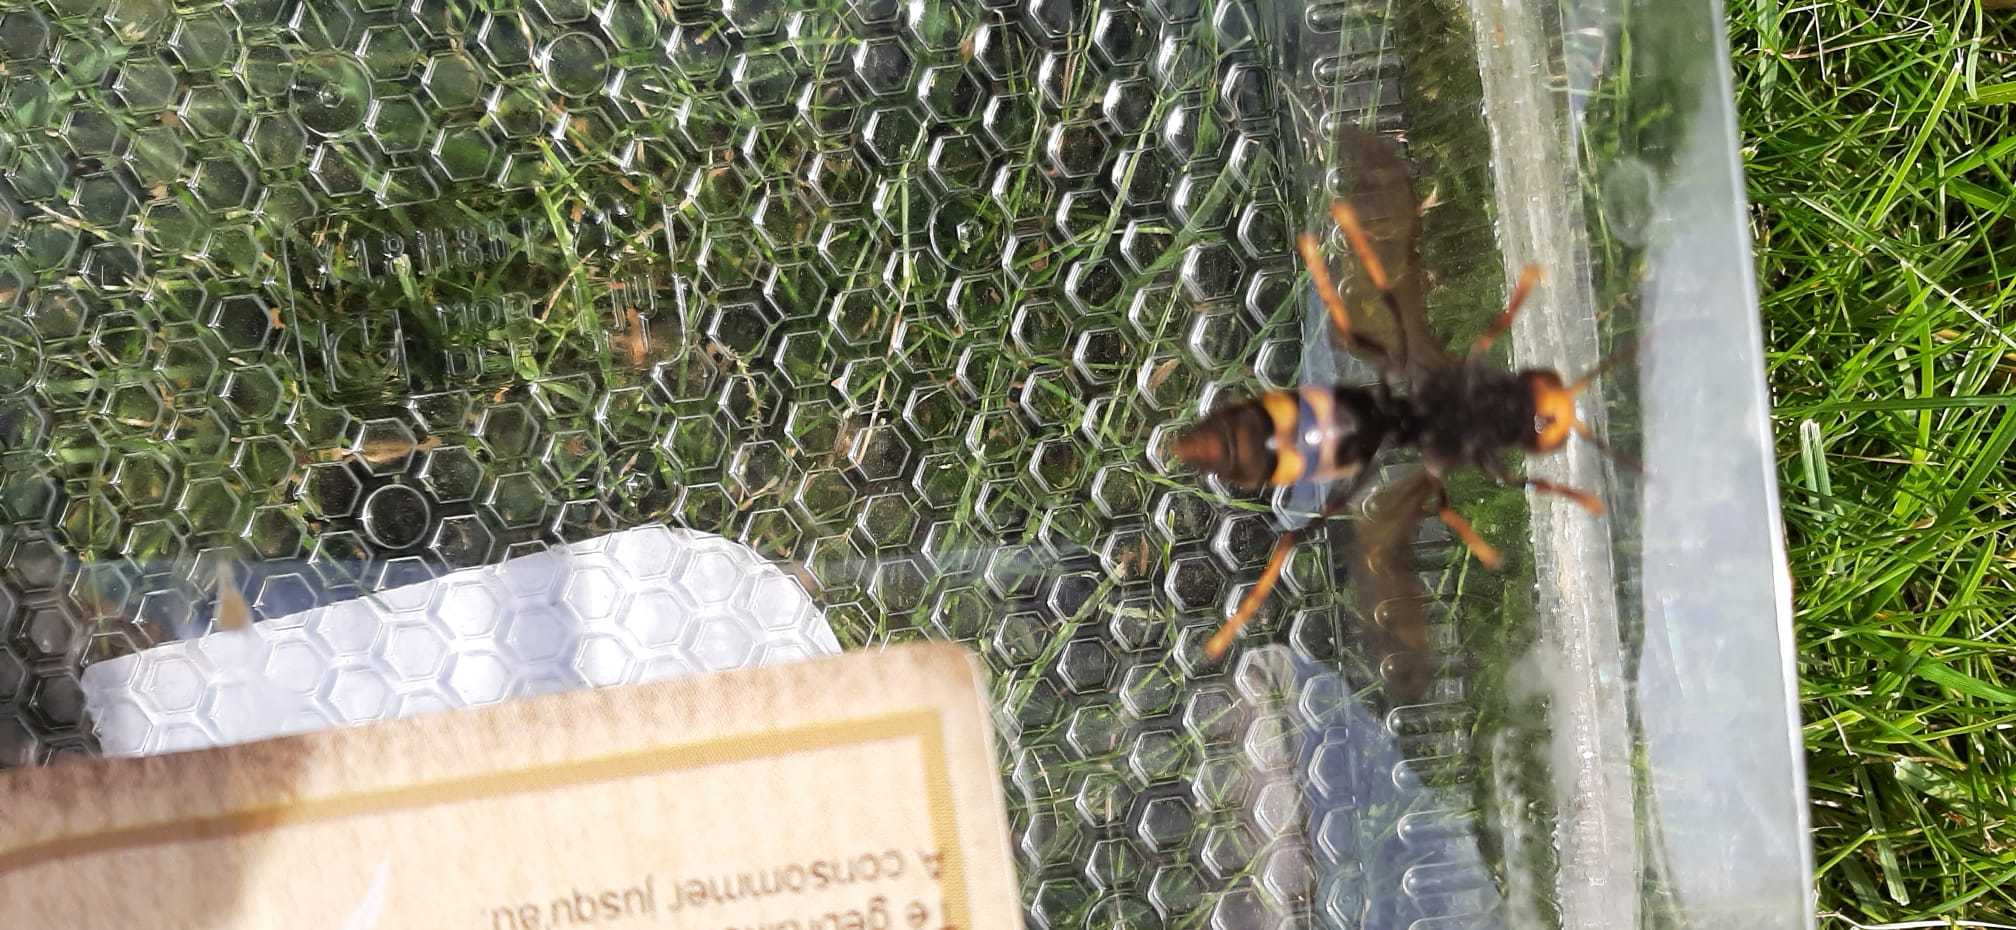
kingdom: Animalia
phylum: Arthropoda
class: Insecta
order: Hymenoptera
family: Vespidae
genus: Vespa
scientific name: Vespa velutina
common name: Asian hornet
